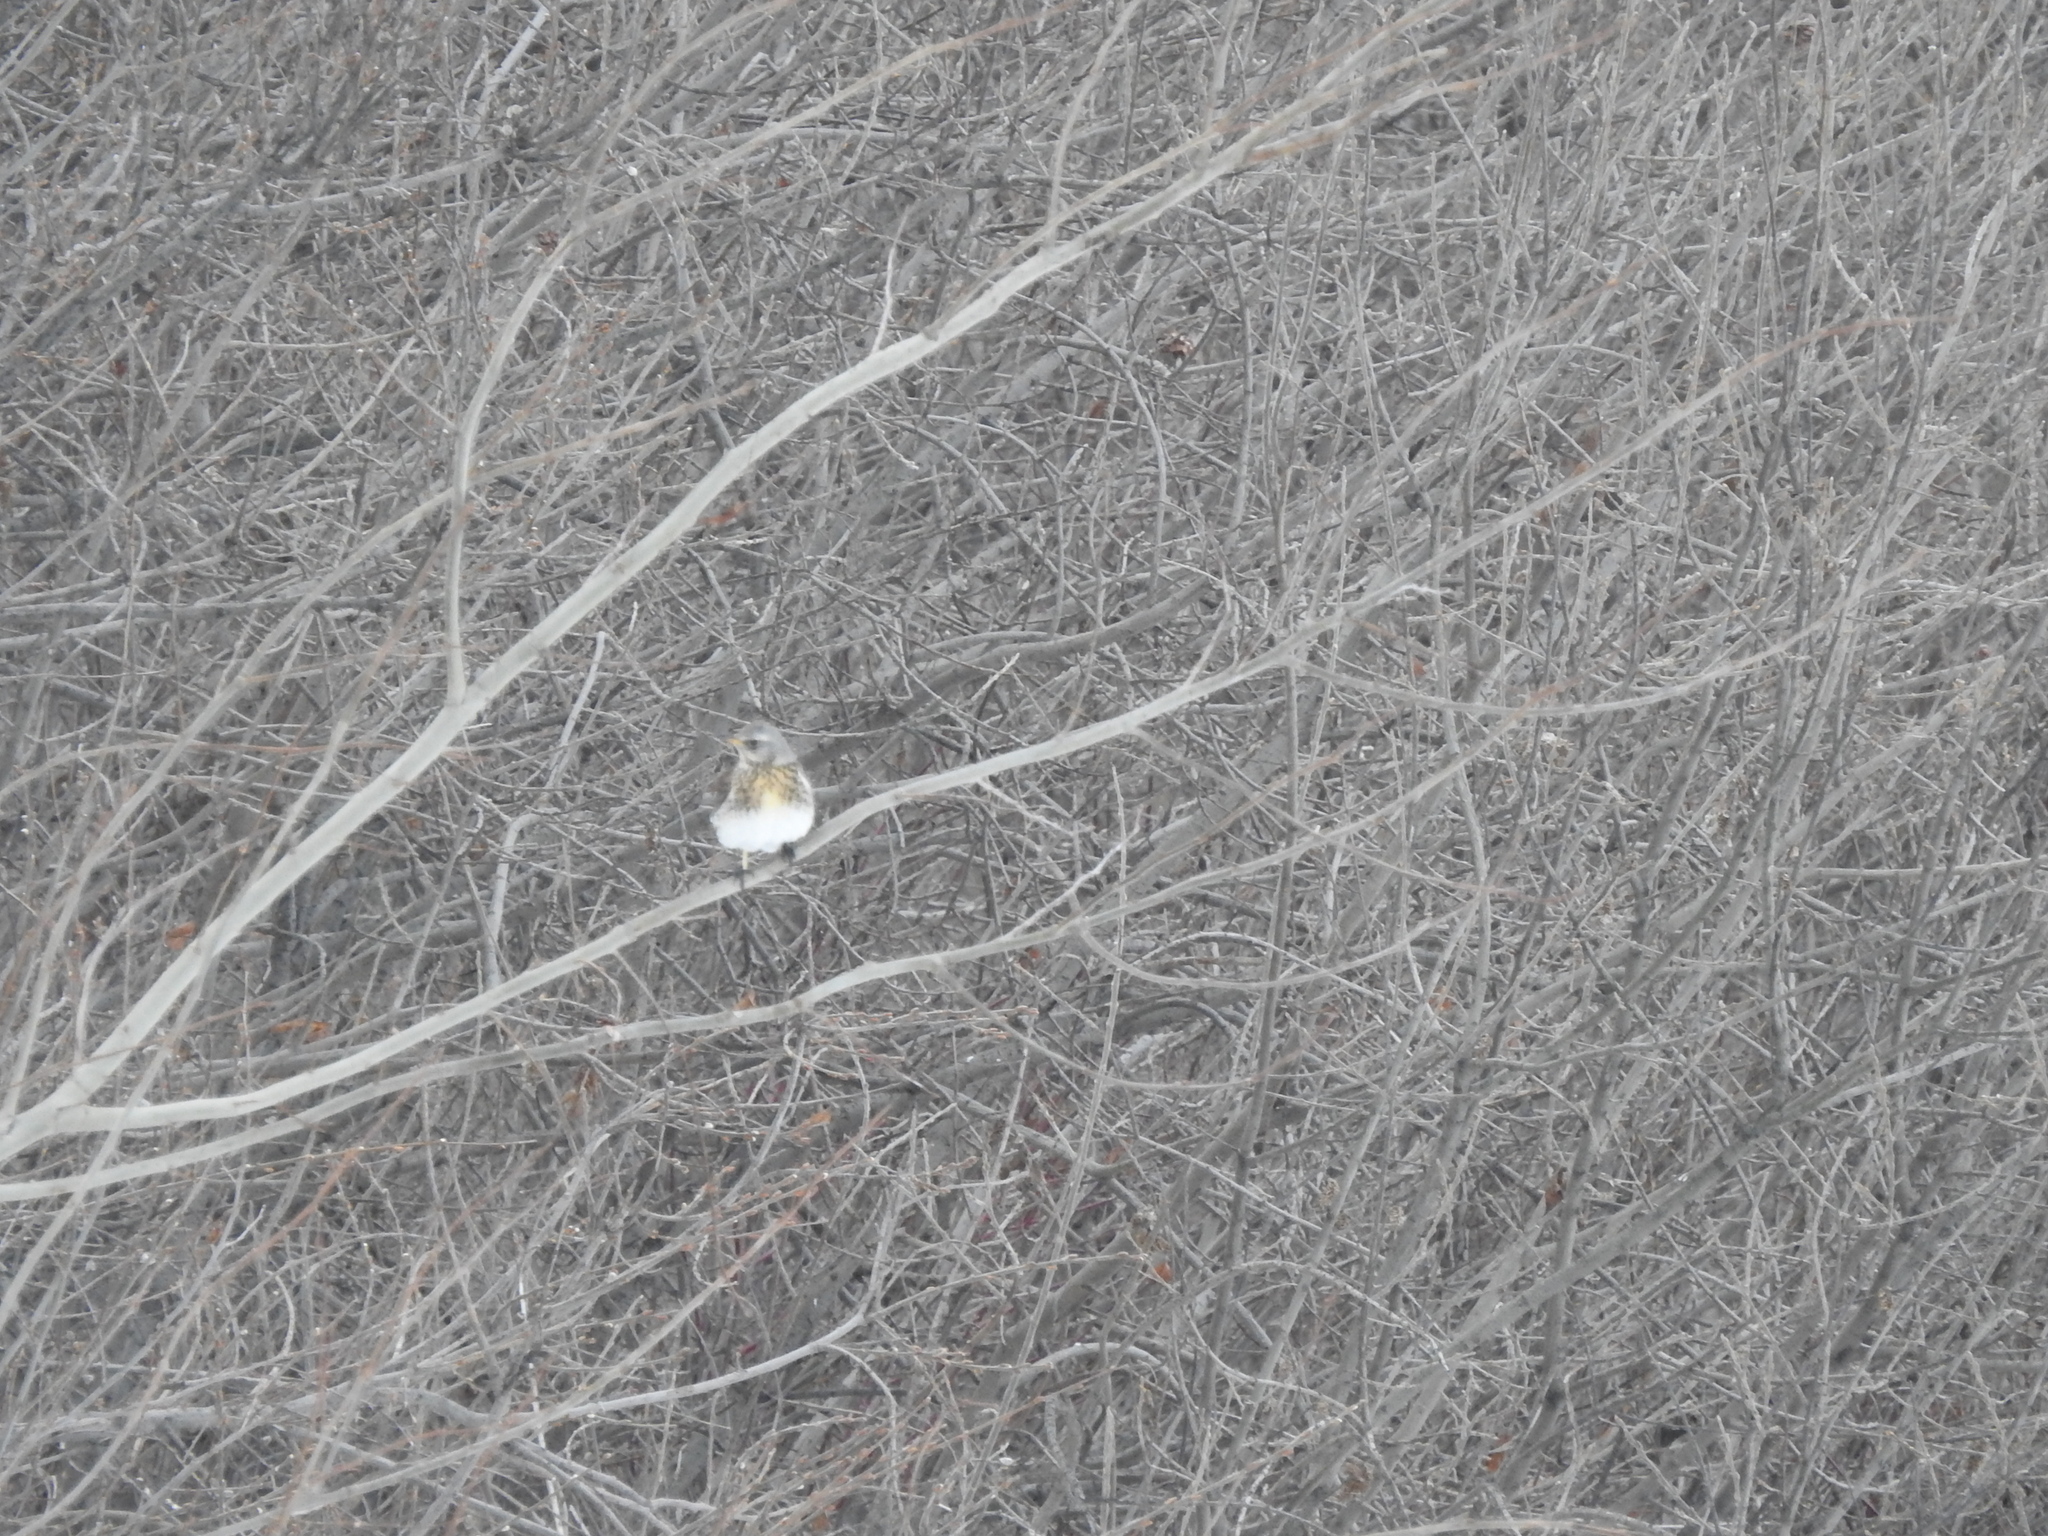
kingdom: Animalia
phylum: Chordata
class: Aves
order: Passeriformes
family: Turdidae
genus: Turdus
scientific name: Turdus pilaris
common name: Fieldfare
